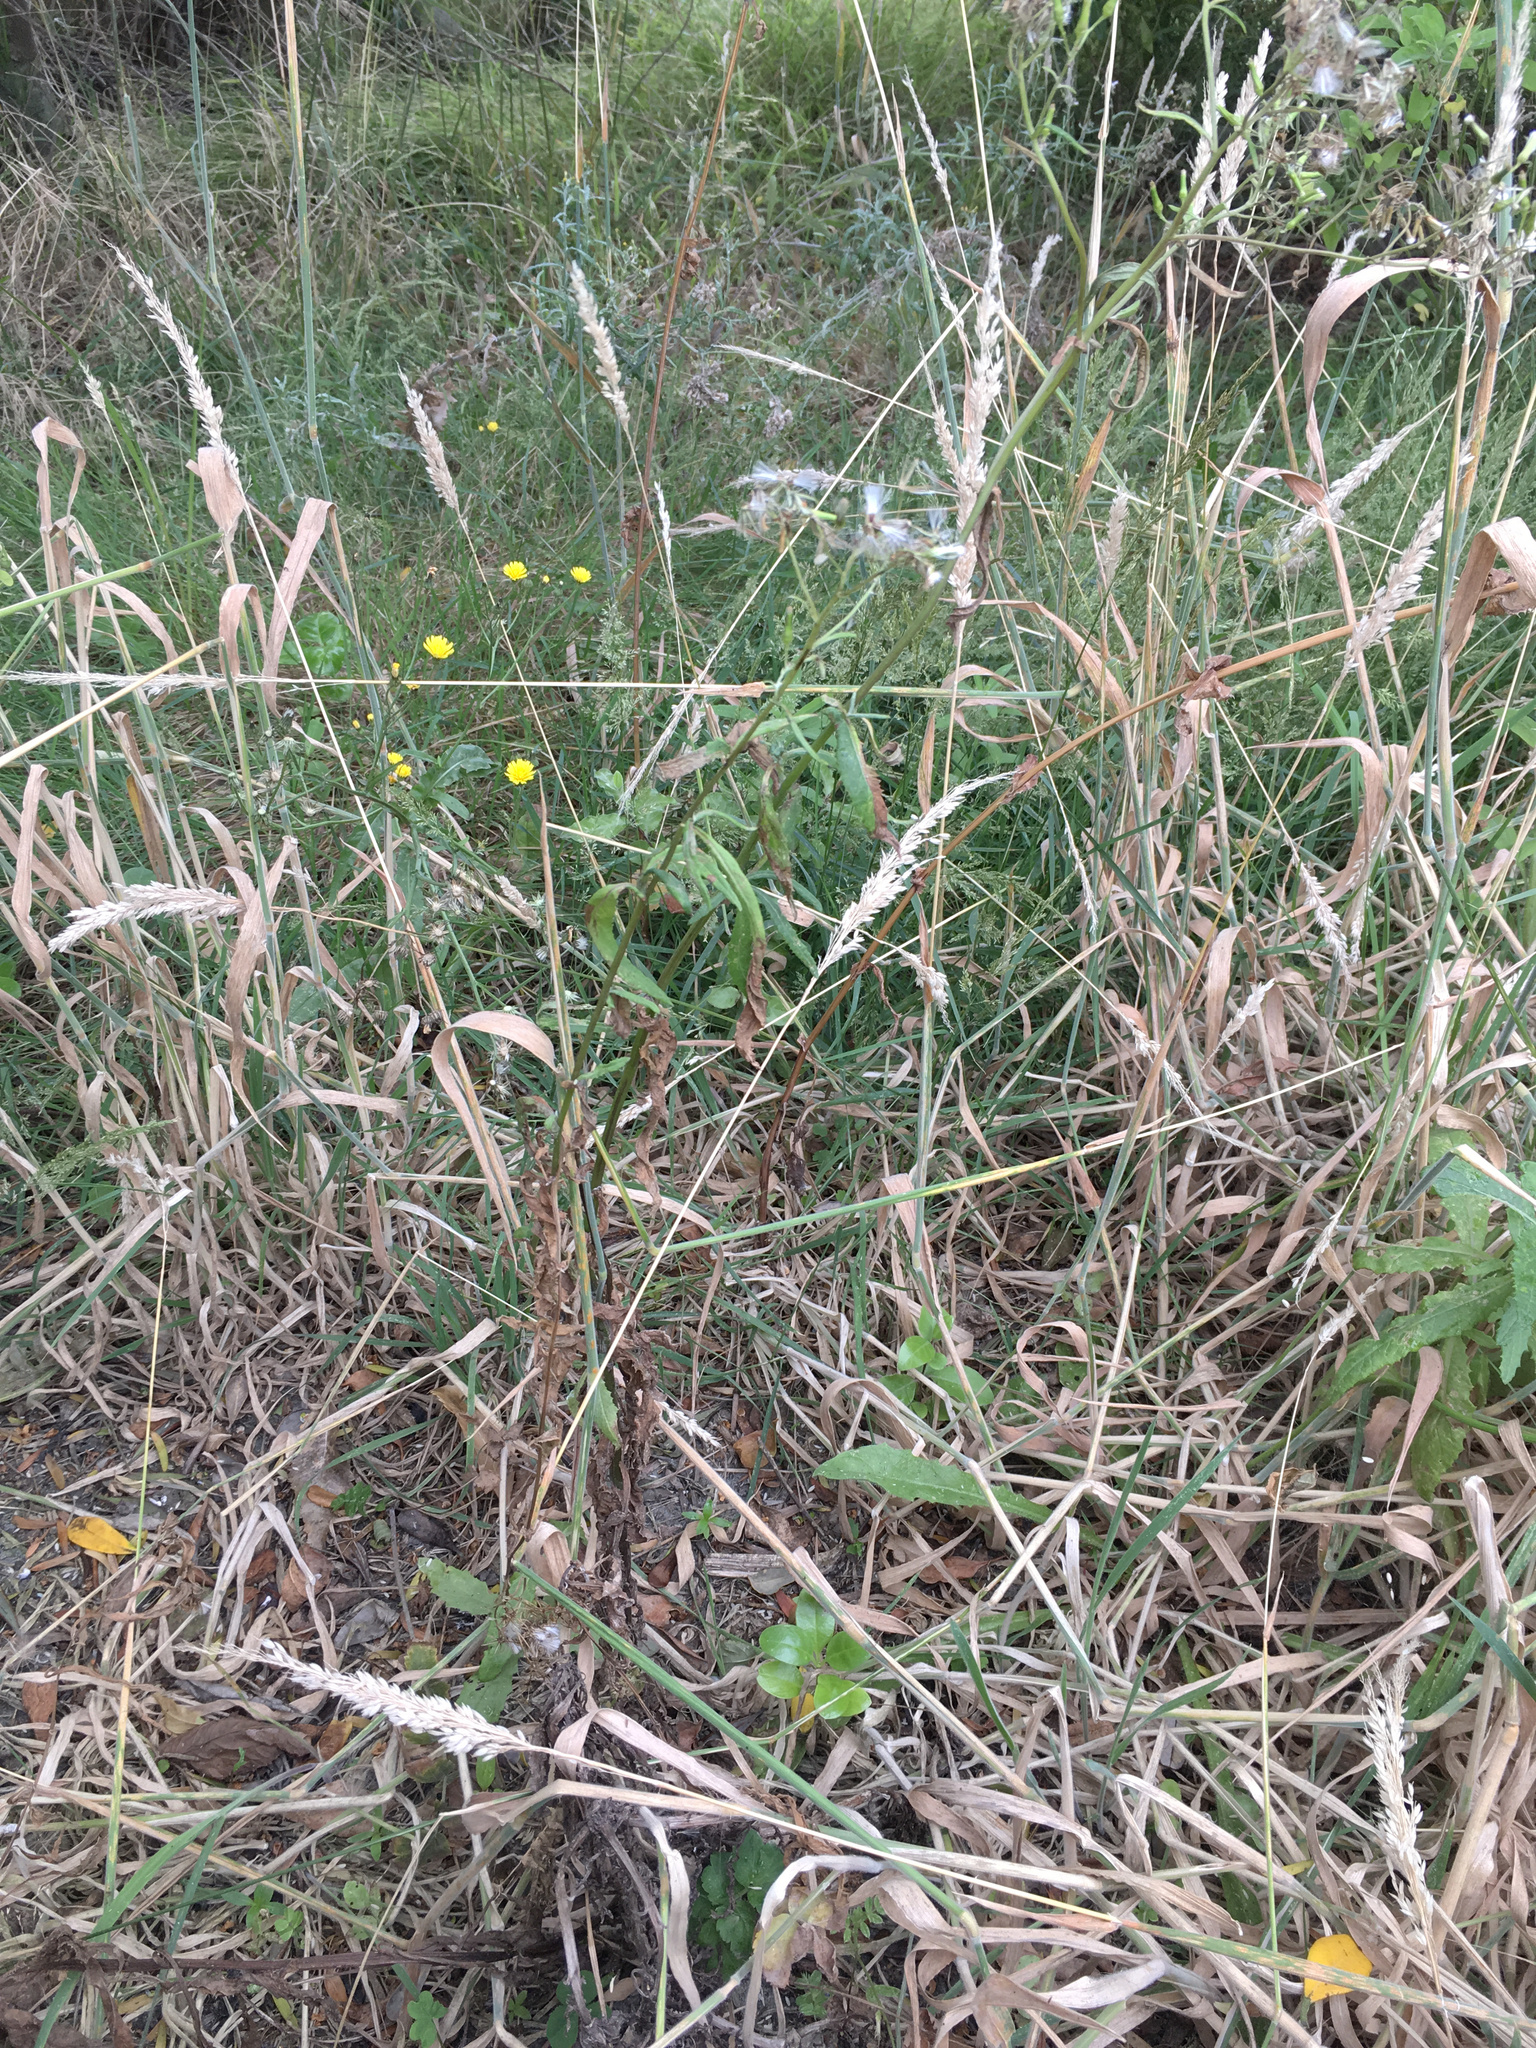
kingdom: Plantae
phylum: Tracheophyta
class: Magnoliopsida
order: Asterales
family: Asteraceae
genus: Senecio
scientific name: Senecio minimus
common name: Toothed fireweed
